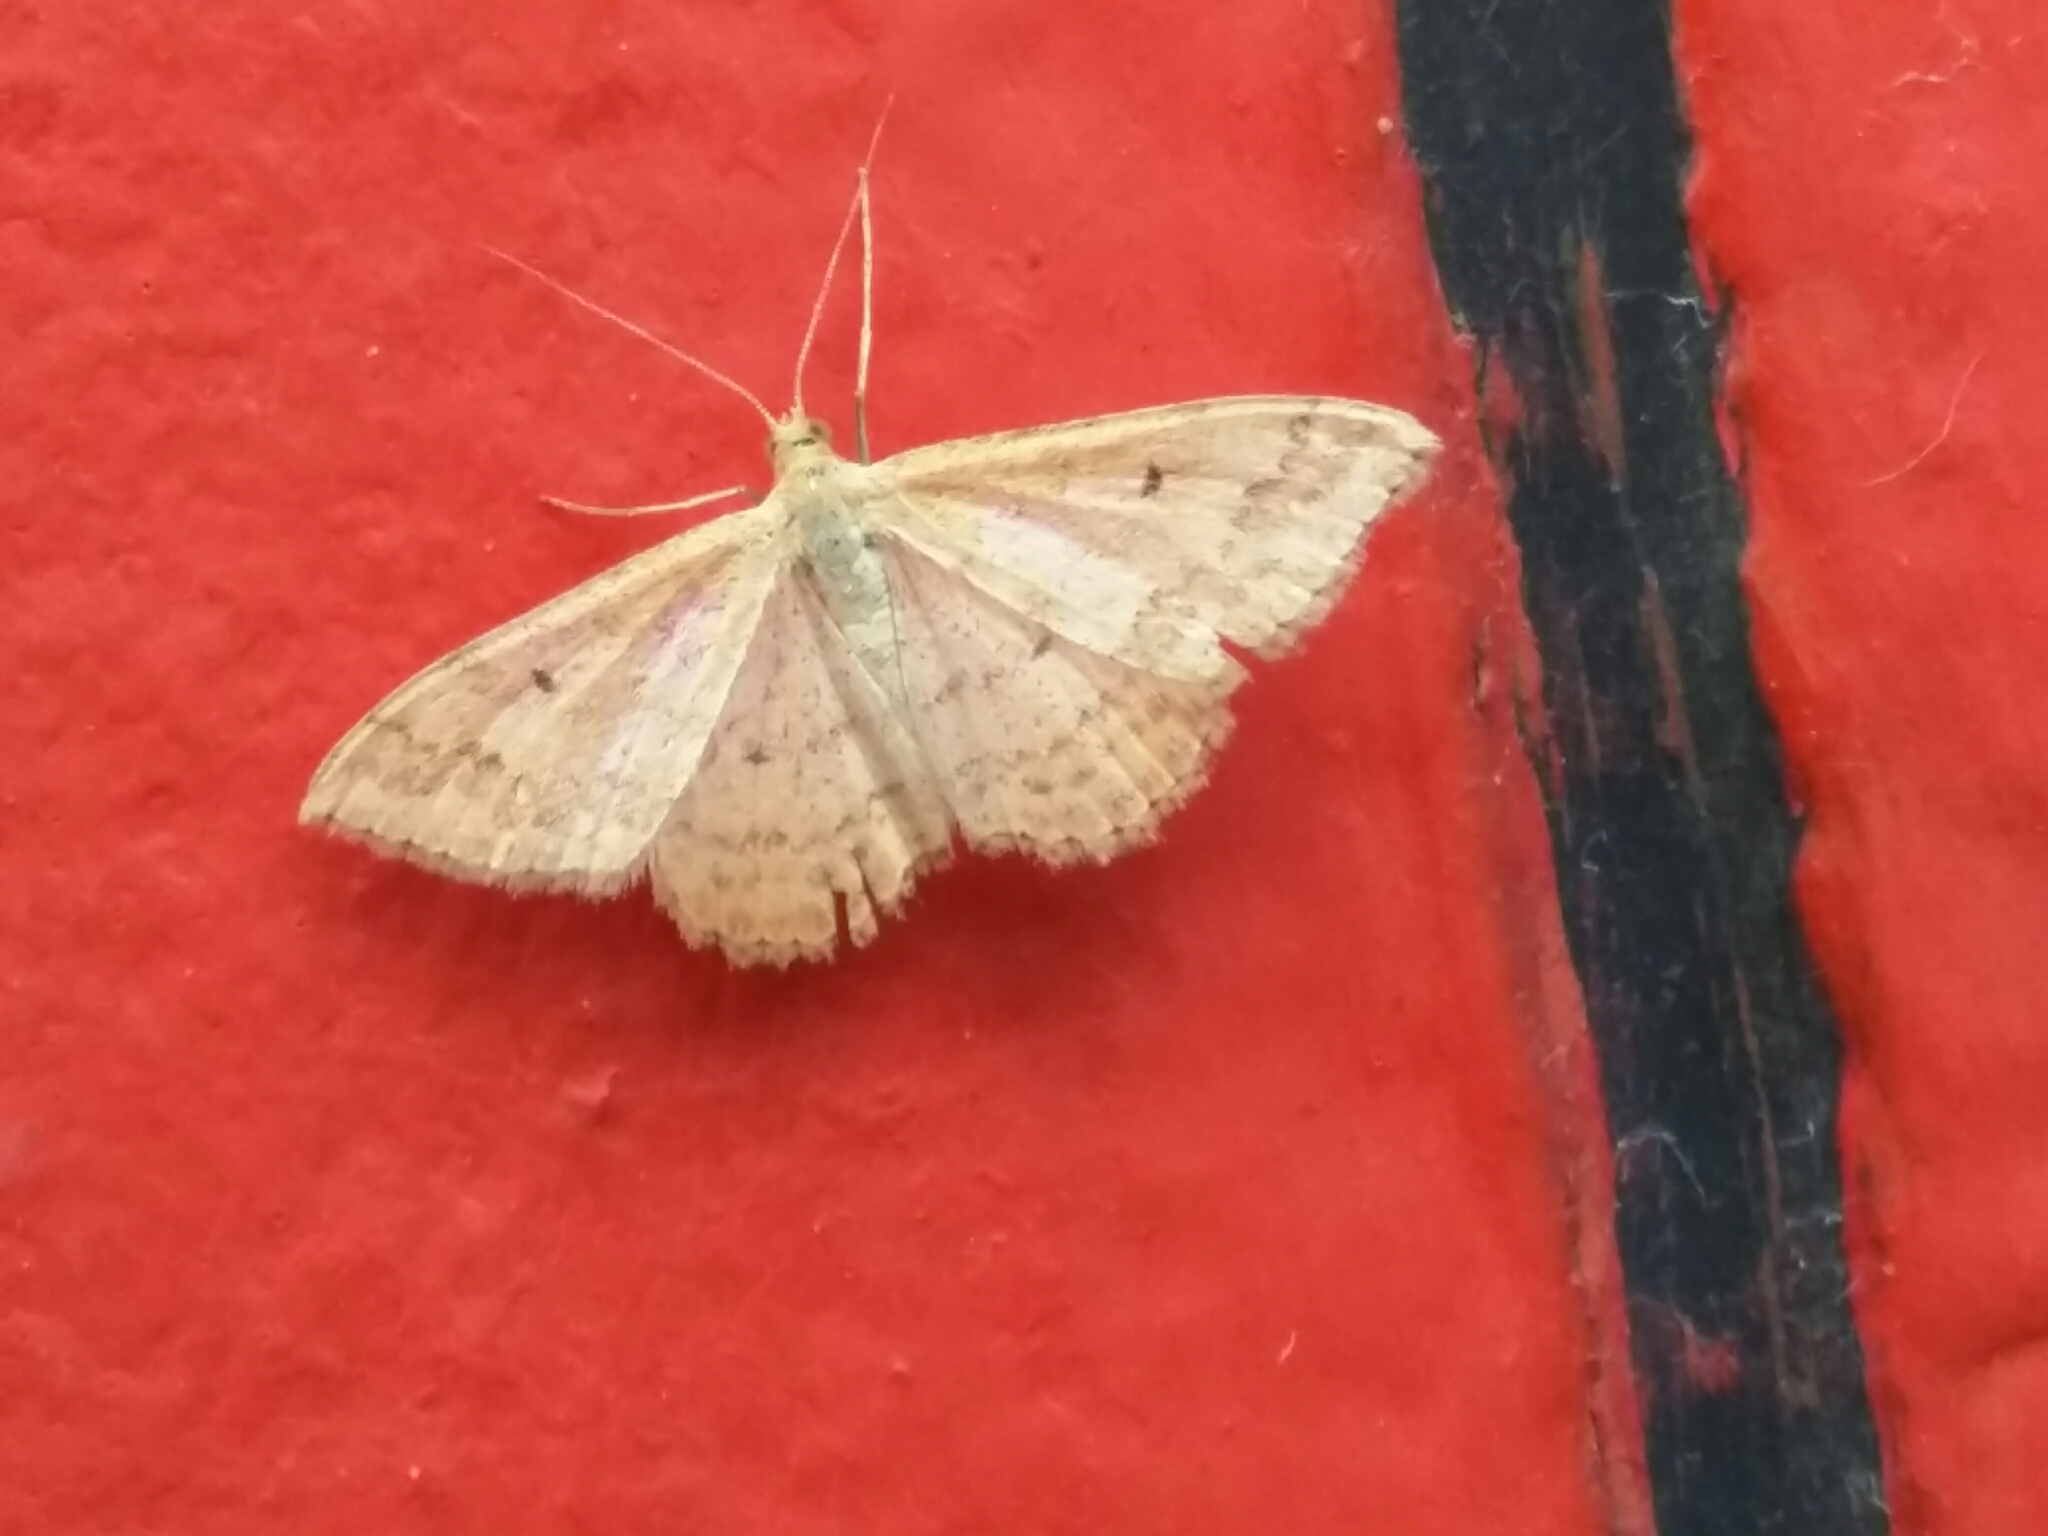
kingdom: Animalia
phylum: Arthropoda
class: Insecta
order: Lepidoptera
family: Geometridae
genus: Scopula
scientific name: Scopula rubraria
